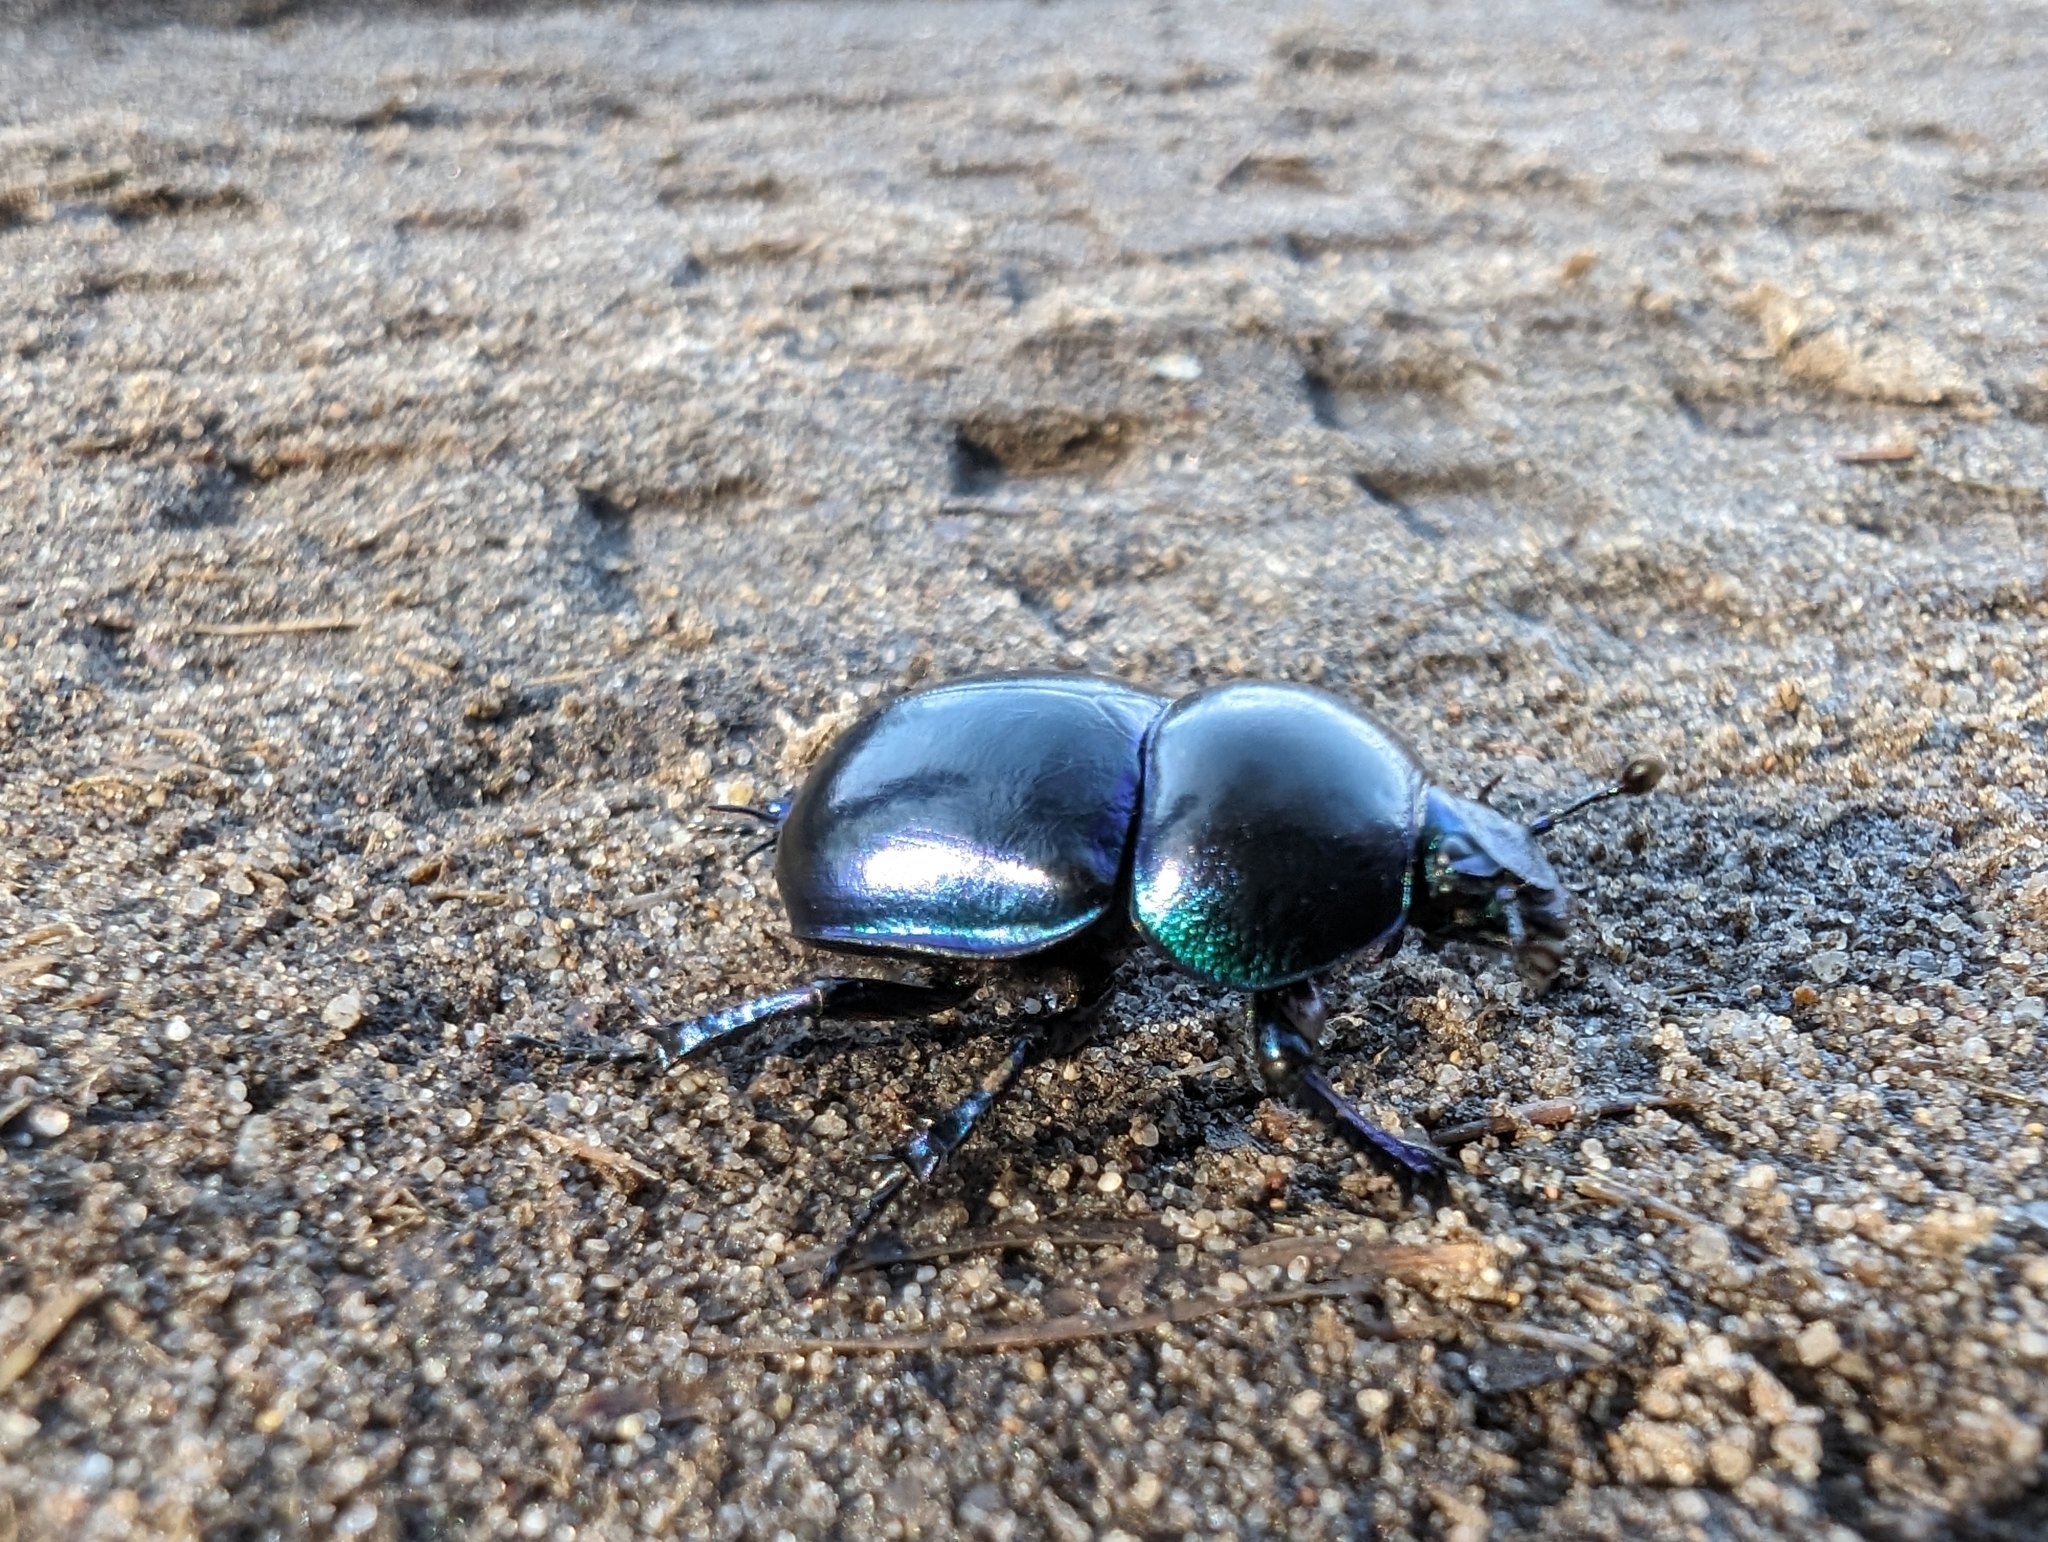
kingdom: Animalia
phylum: Arthropoda
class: Insecta
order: Coleoptera
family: Geotrupidae
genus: Trypocopris
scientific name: Trypocopris vernalis
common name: Spring dumbledor
